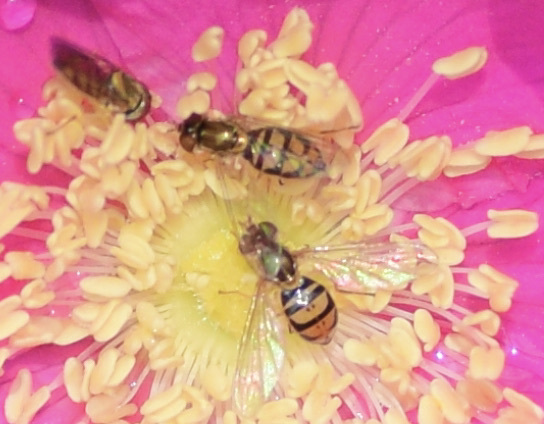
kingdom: Animalia
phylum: Arthropoda
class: Insecta
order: Diptera
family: Syrphidae
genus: Toxomerus
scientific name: Toxomerus marginatus
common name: Syrphid fly
